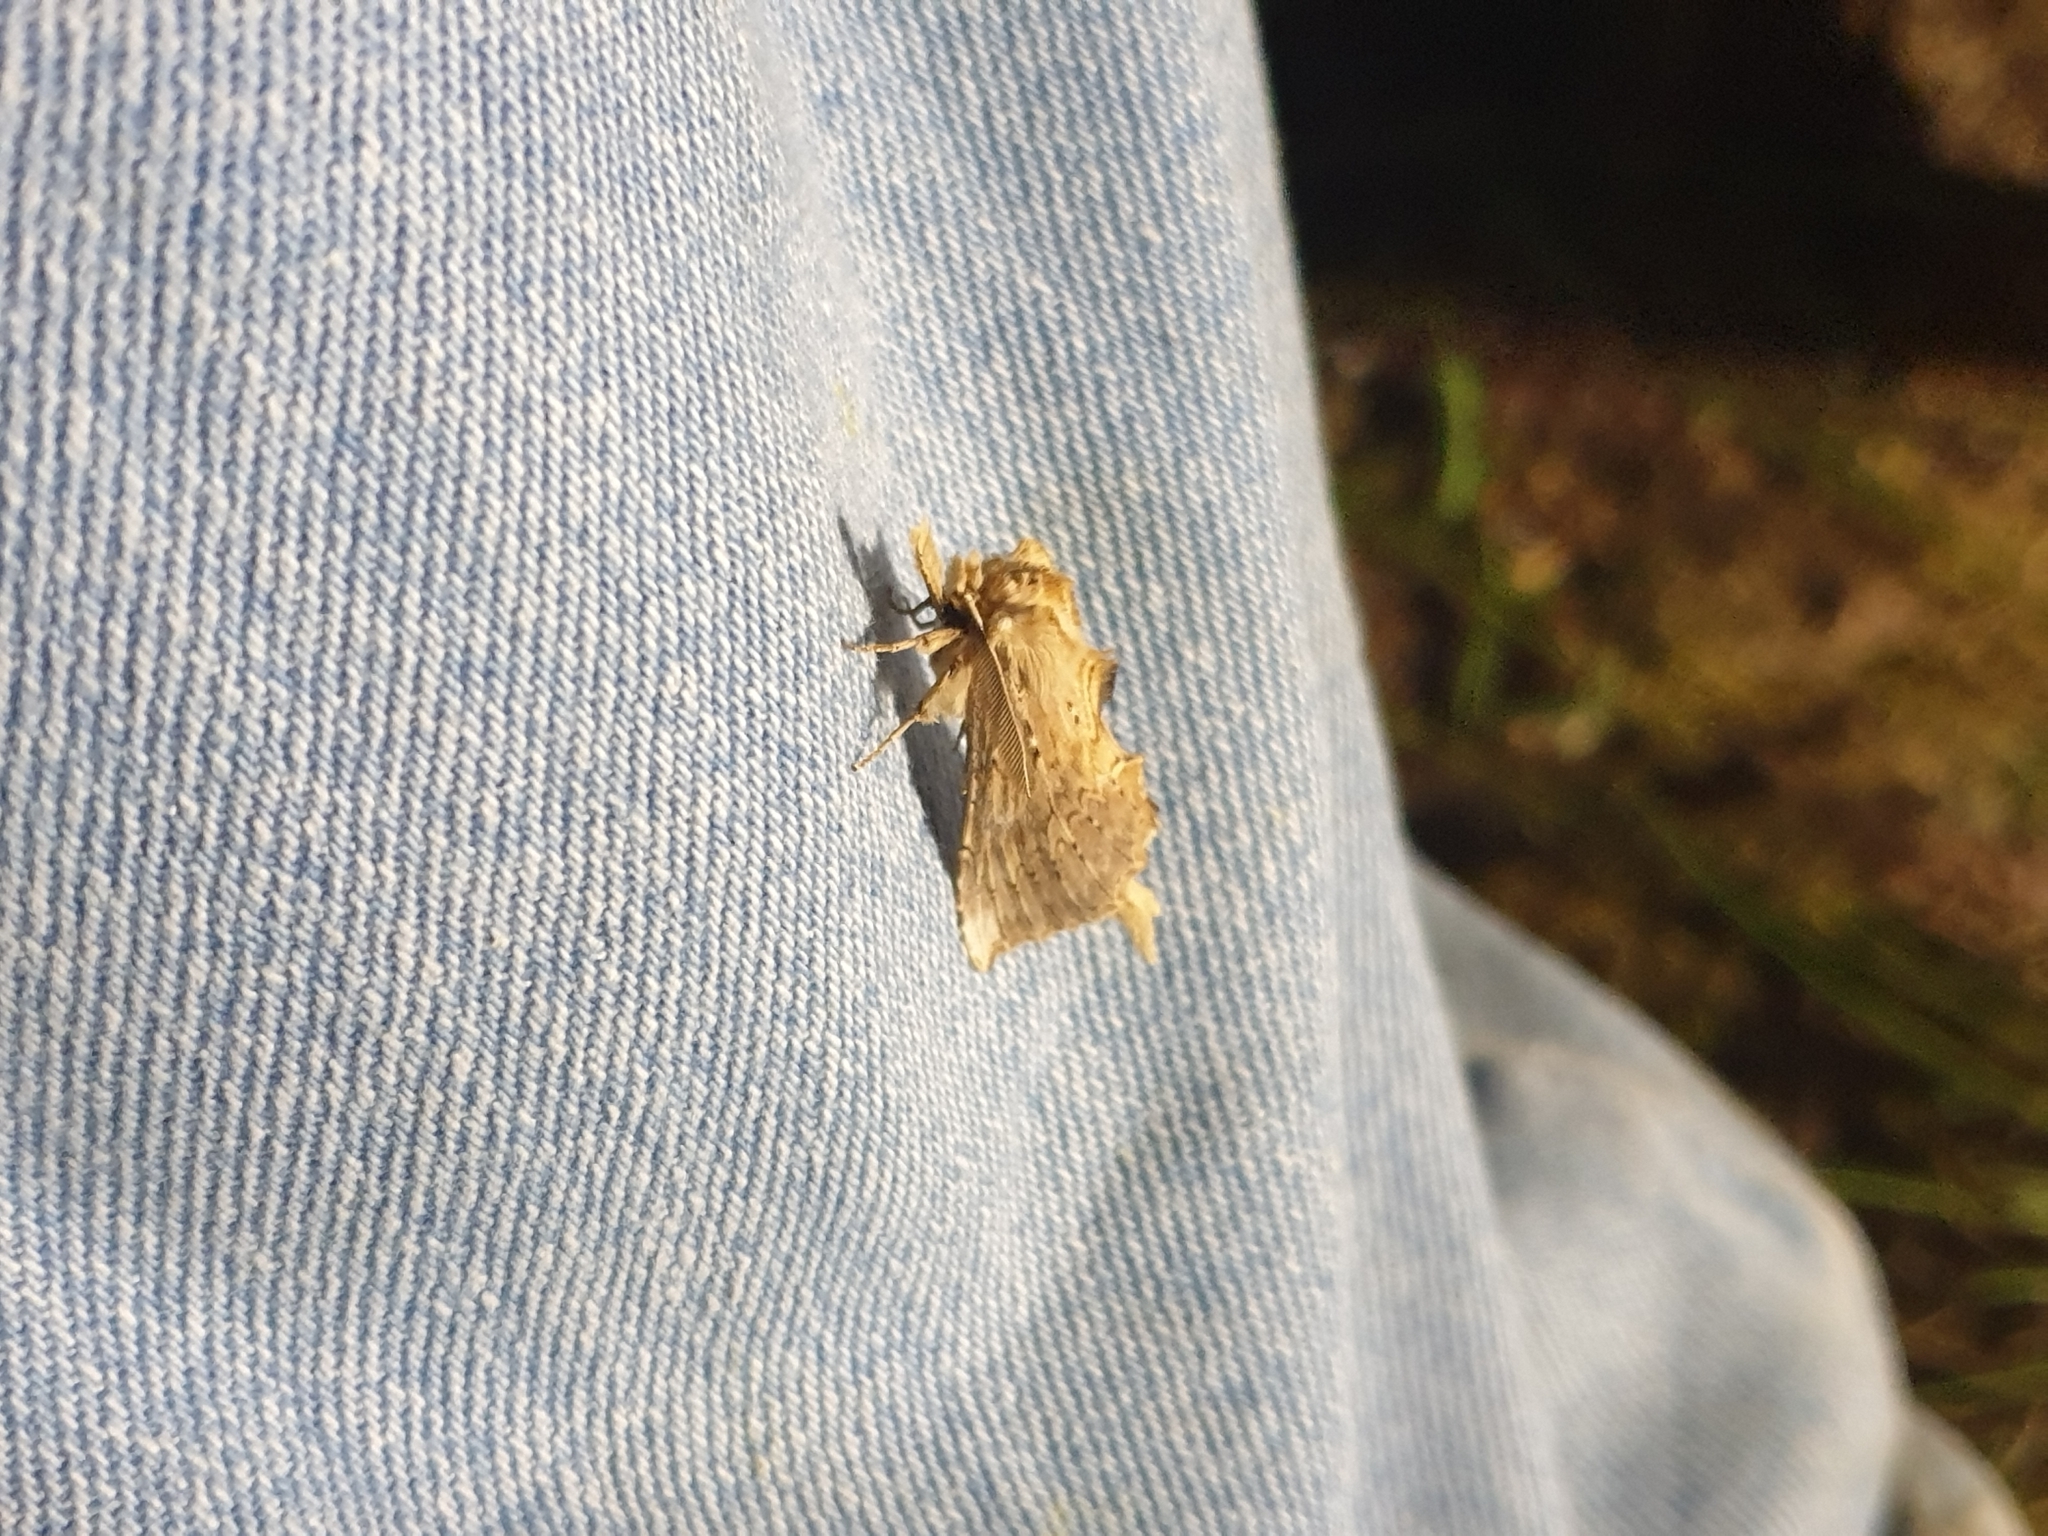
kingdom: Animalia
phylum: Arthropoda
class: Insecta
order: Lepidoptera
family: Notodontidae
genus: Pterostoma
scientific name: Pterostoma palpina
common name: Pale prominent
